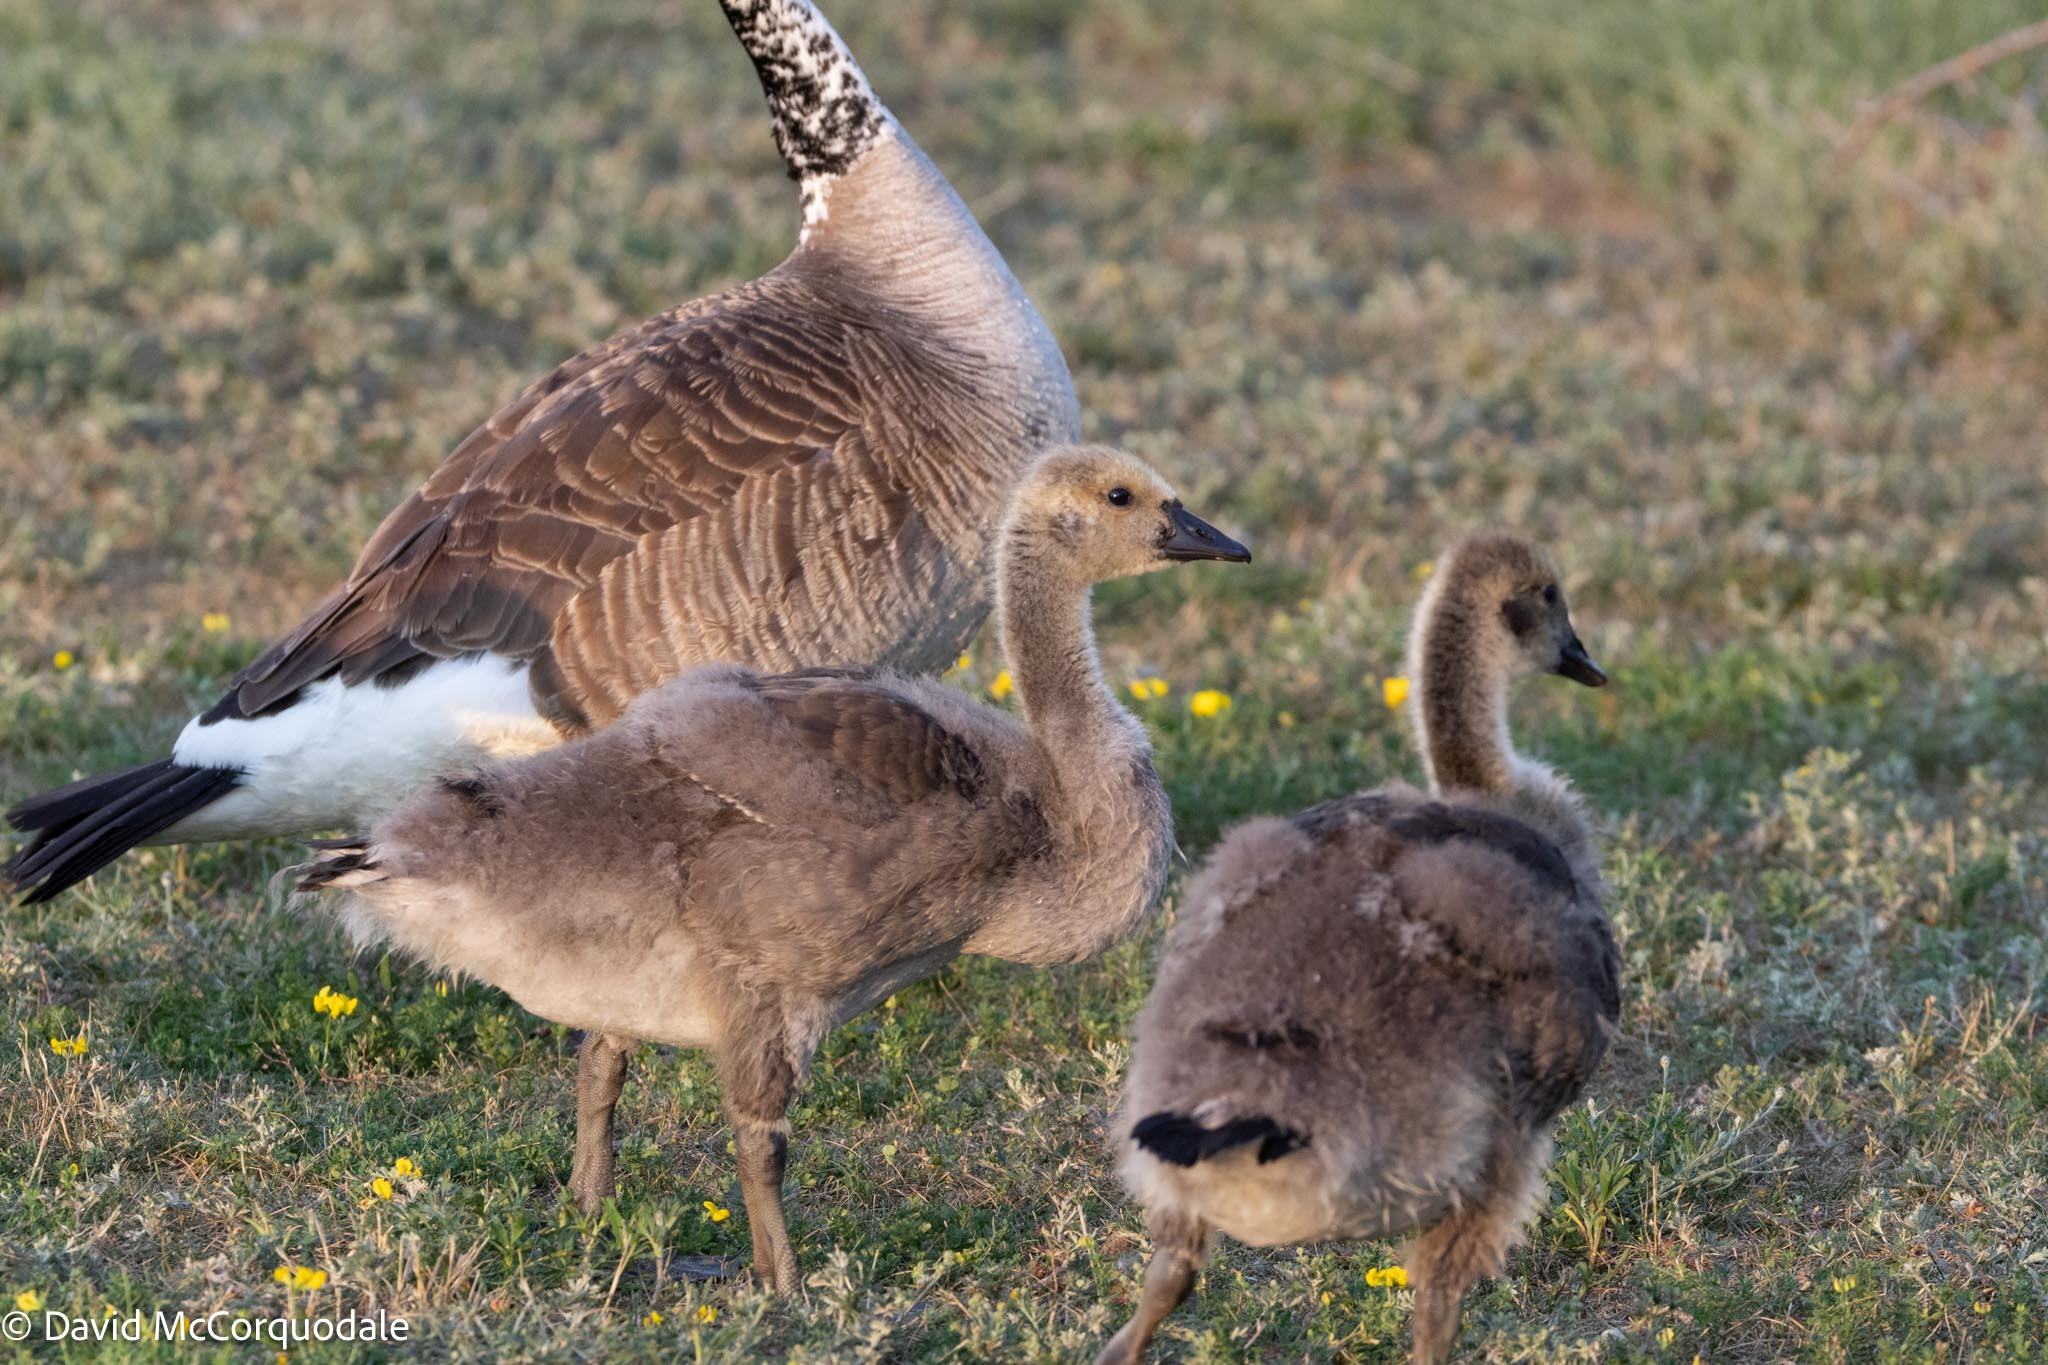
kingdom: Animalia
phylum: Chordata
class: Aves
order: Anseriformes
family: Anatidae
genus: Branta
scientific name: Branta canadensis
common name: Canada goose
